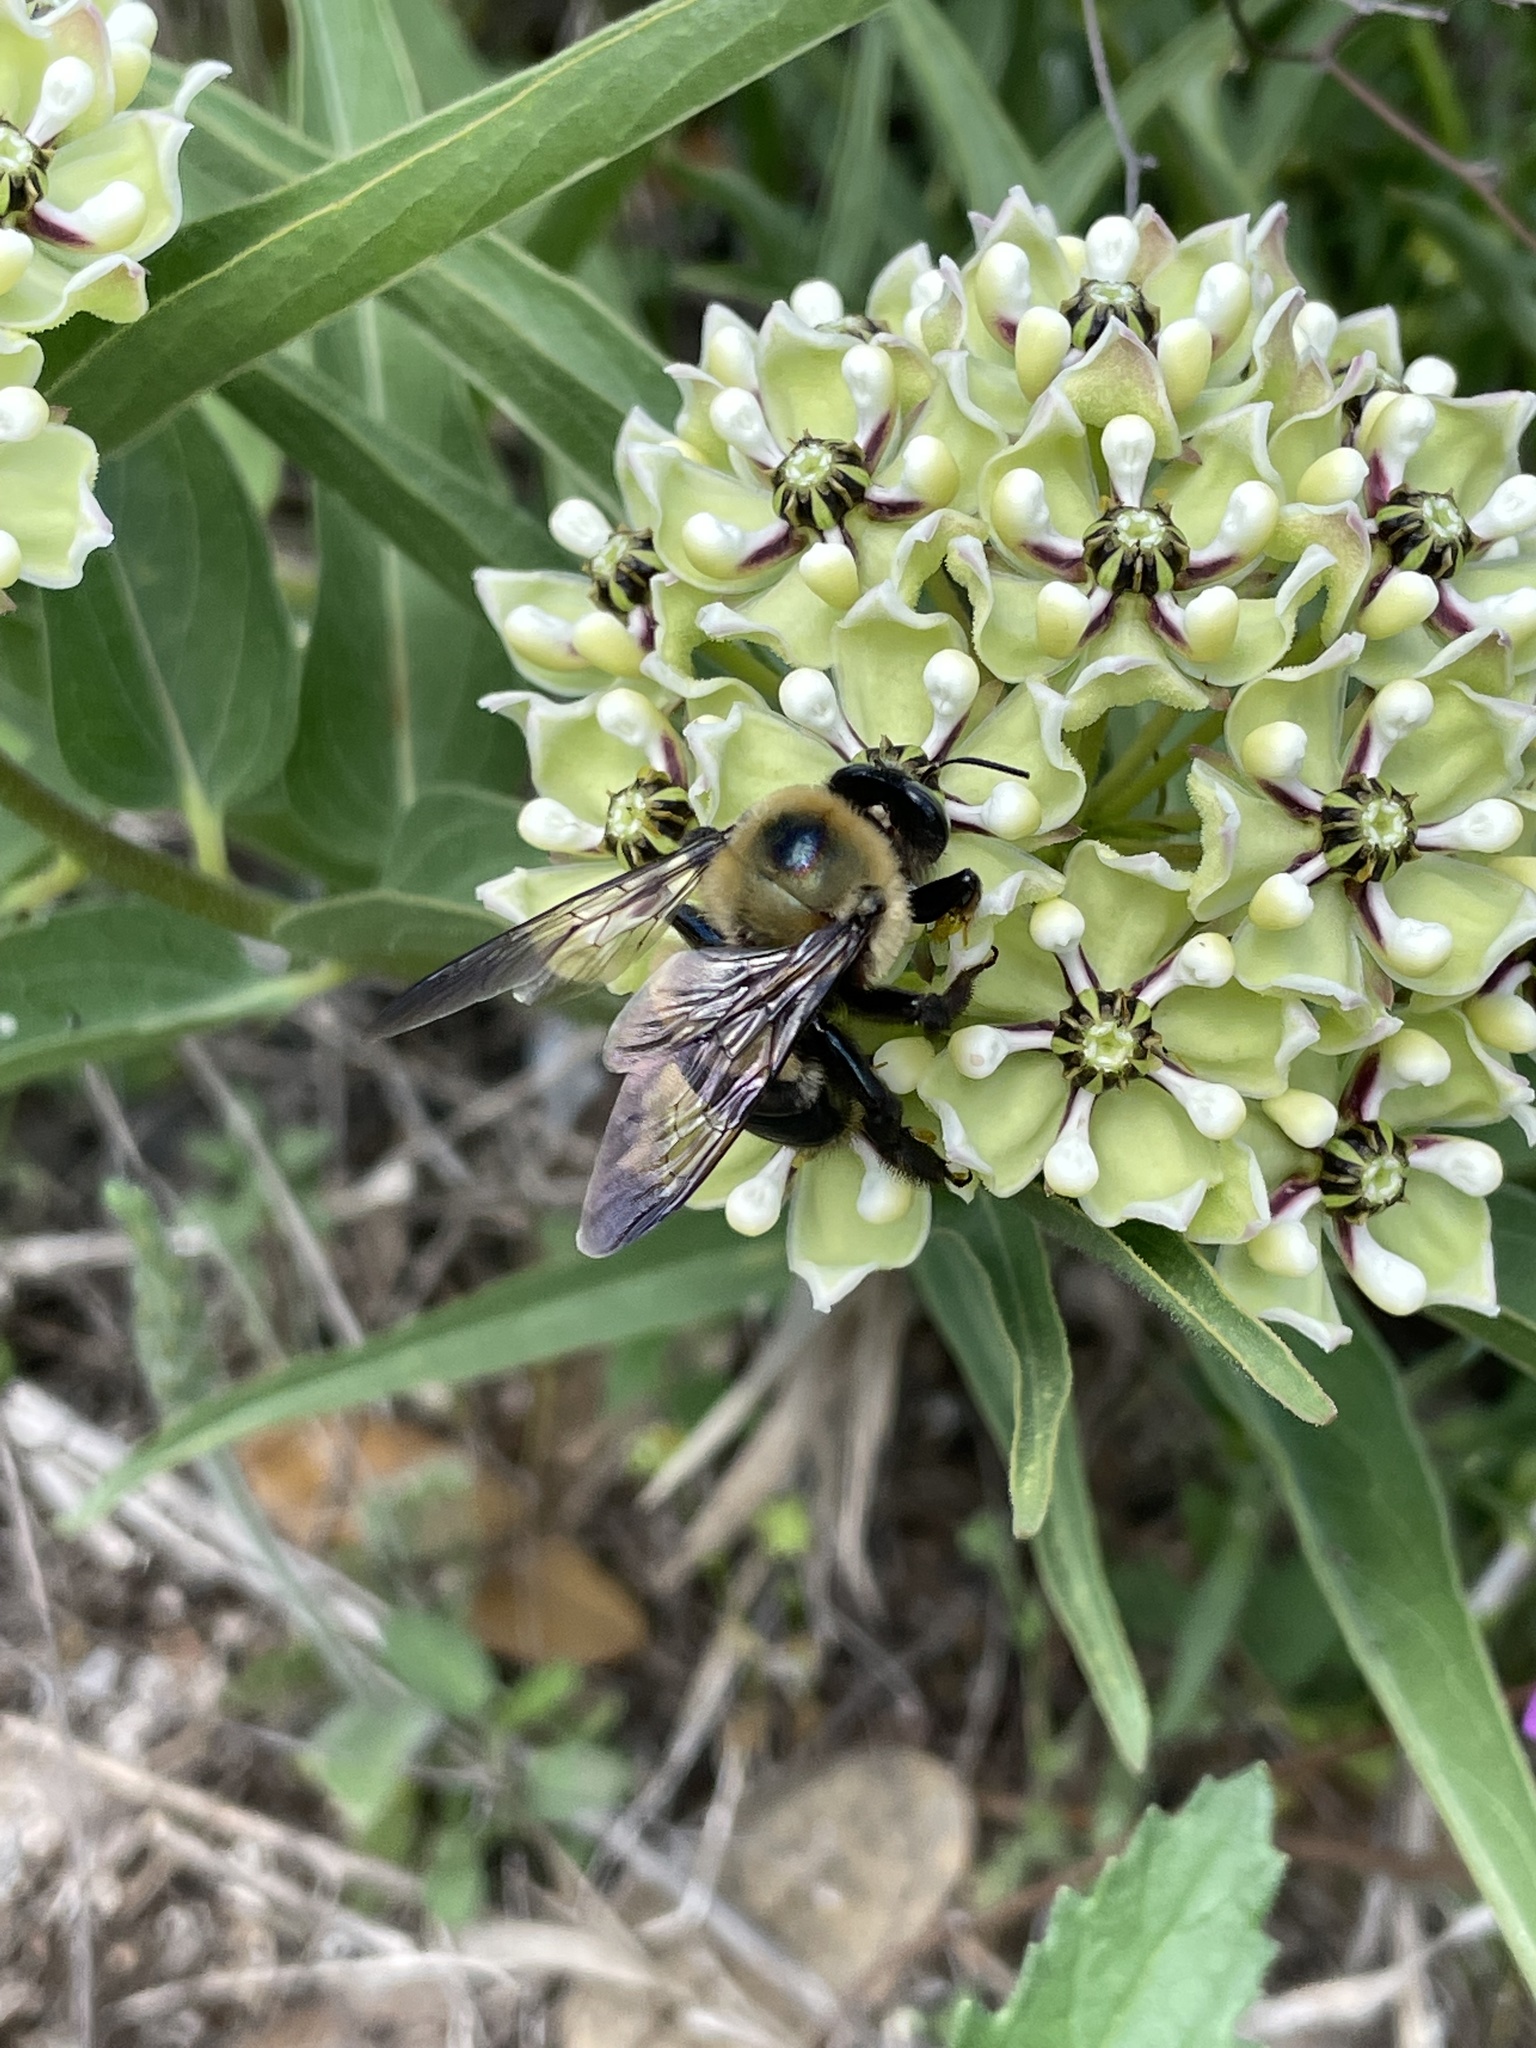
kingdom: Animalia
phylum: Arthropoda
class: Insecta
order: Hymenoptera
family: Apidae
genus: Xylocopa
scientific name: Xylocopa virginica
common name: Carpenter bee
